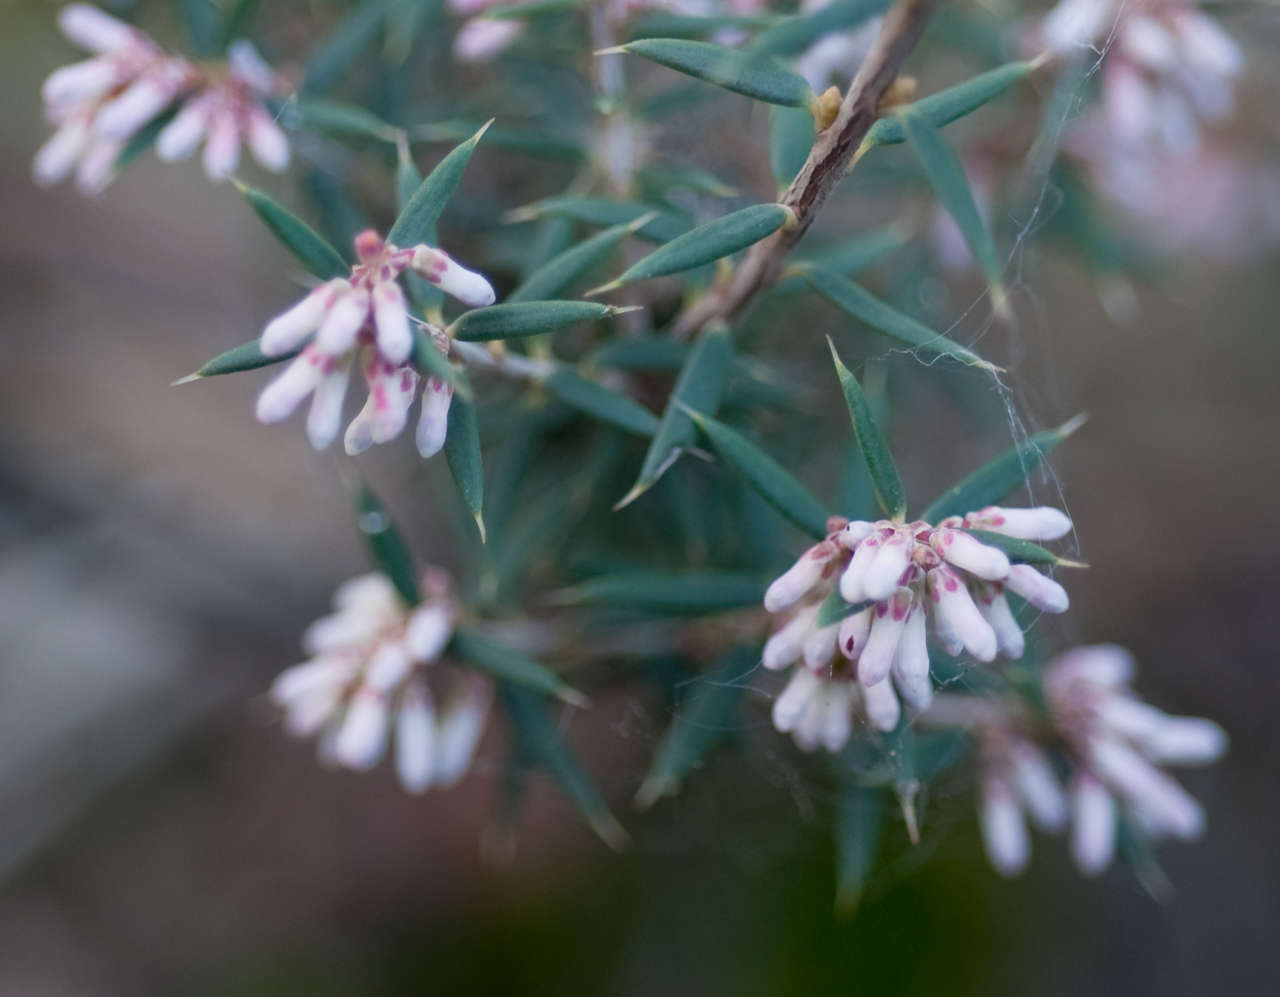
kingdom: Plantae
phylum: Tracheophyta
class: Magnoliopsida
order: Ericales
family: Ericaceae
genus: Lissanthe
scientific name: Lissanthe strigosa
